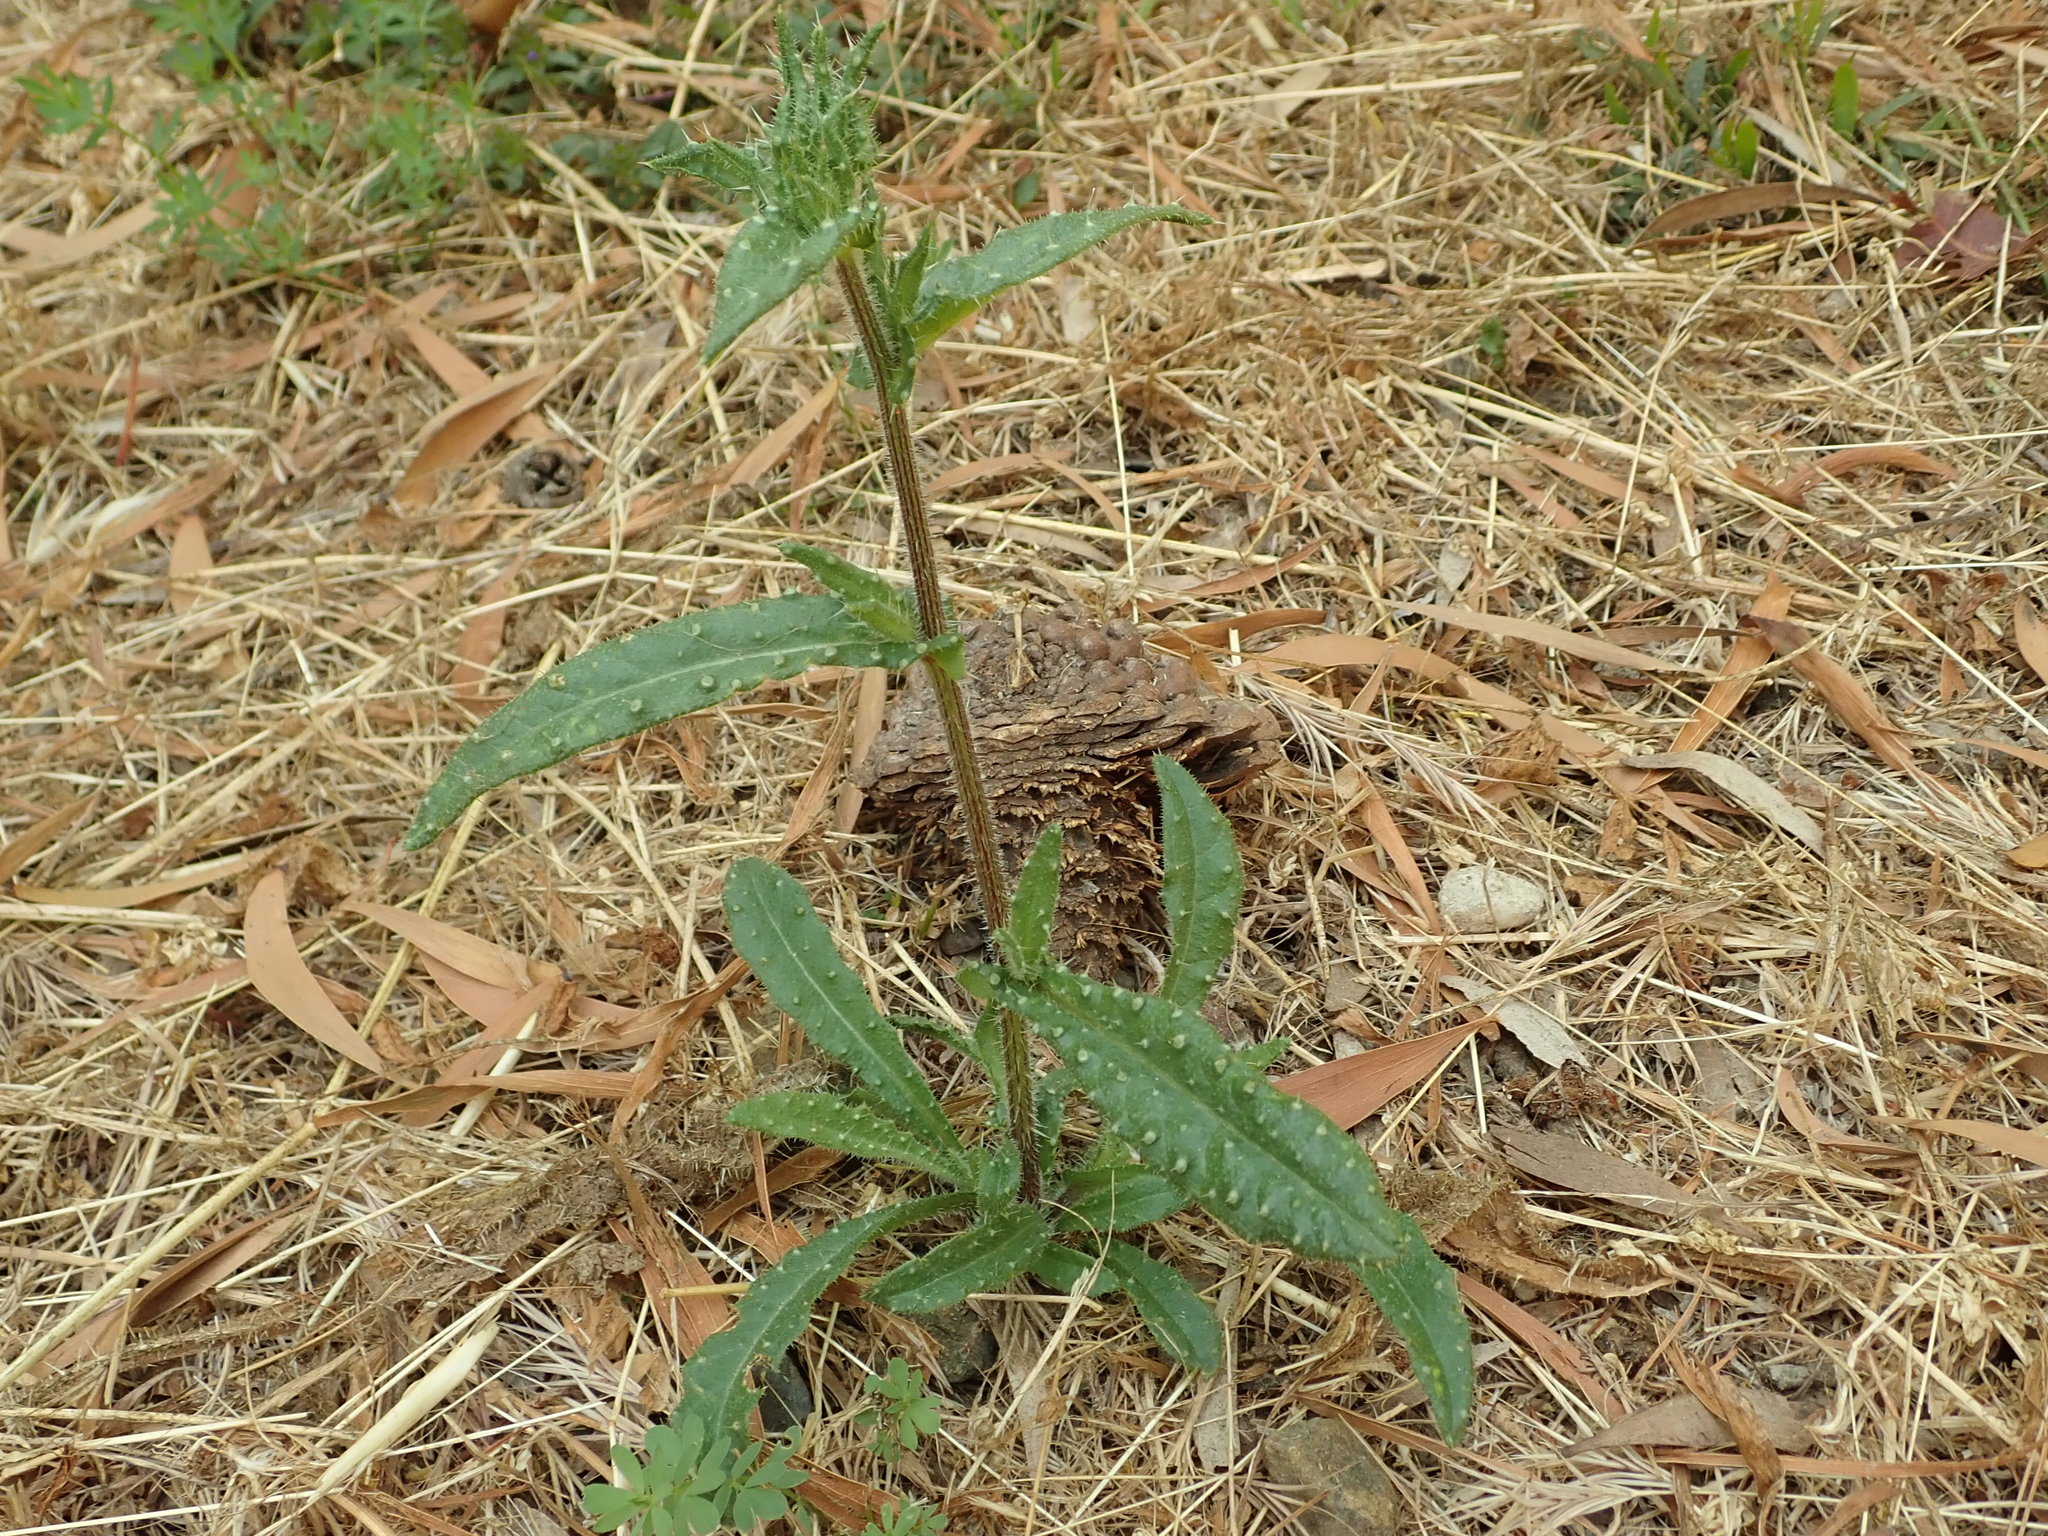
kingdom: Plantae
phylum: Tracheophyta
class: Magnoliopsida
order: Asterales
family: Asteraceae
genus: Helminthotheca
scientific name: Helminthotheca echioides
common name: Ox-tongue
